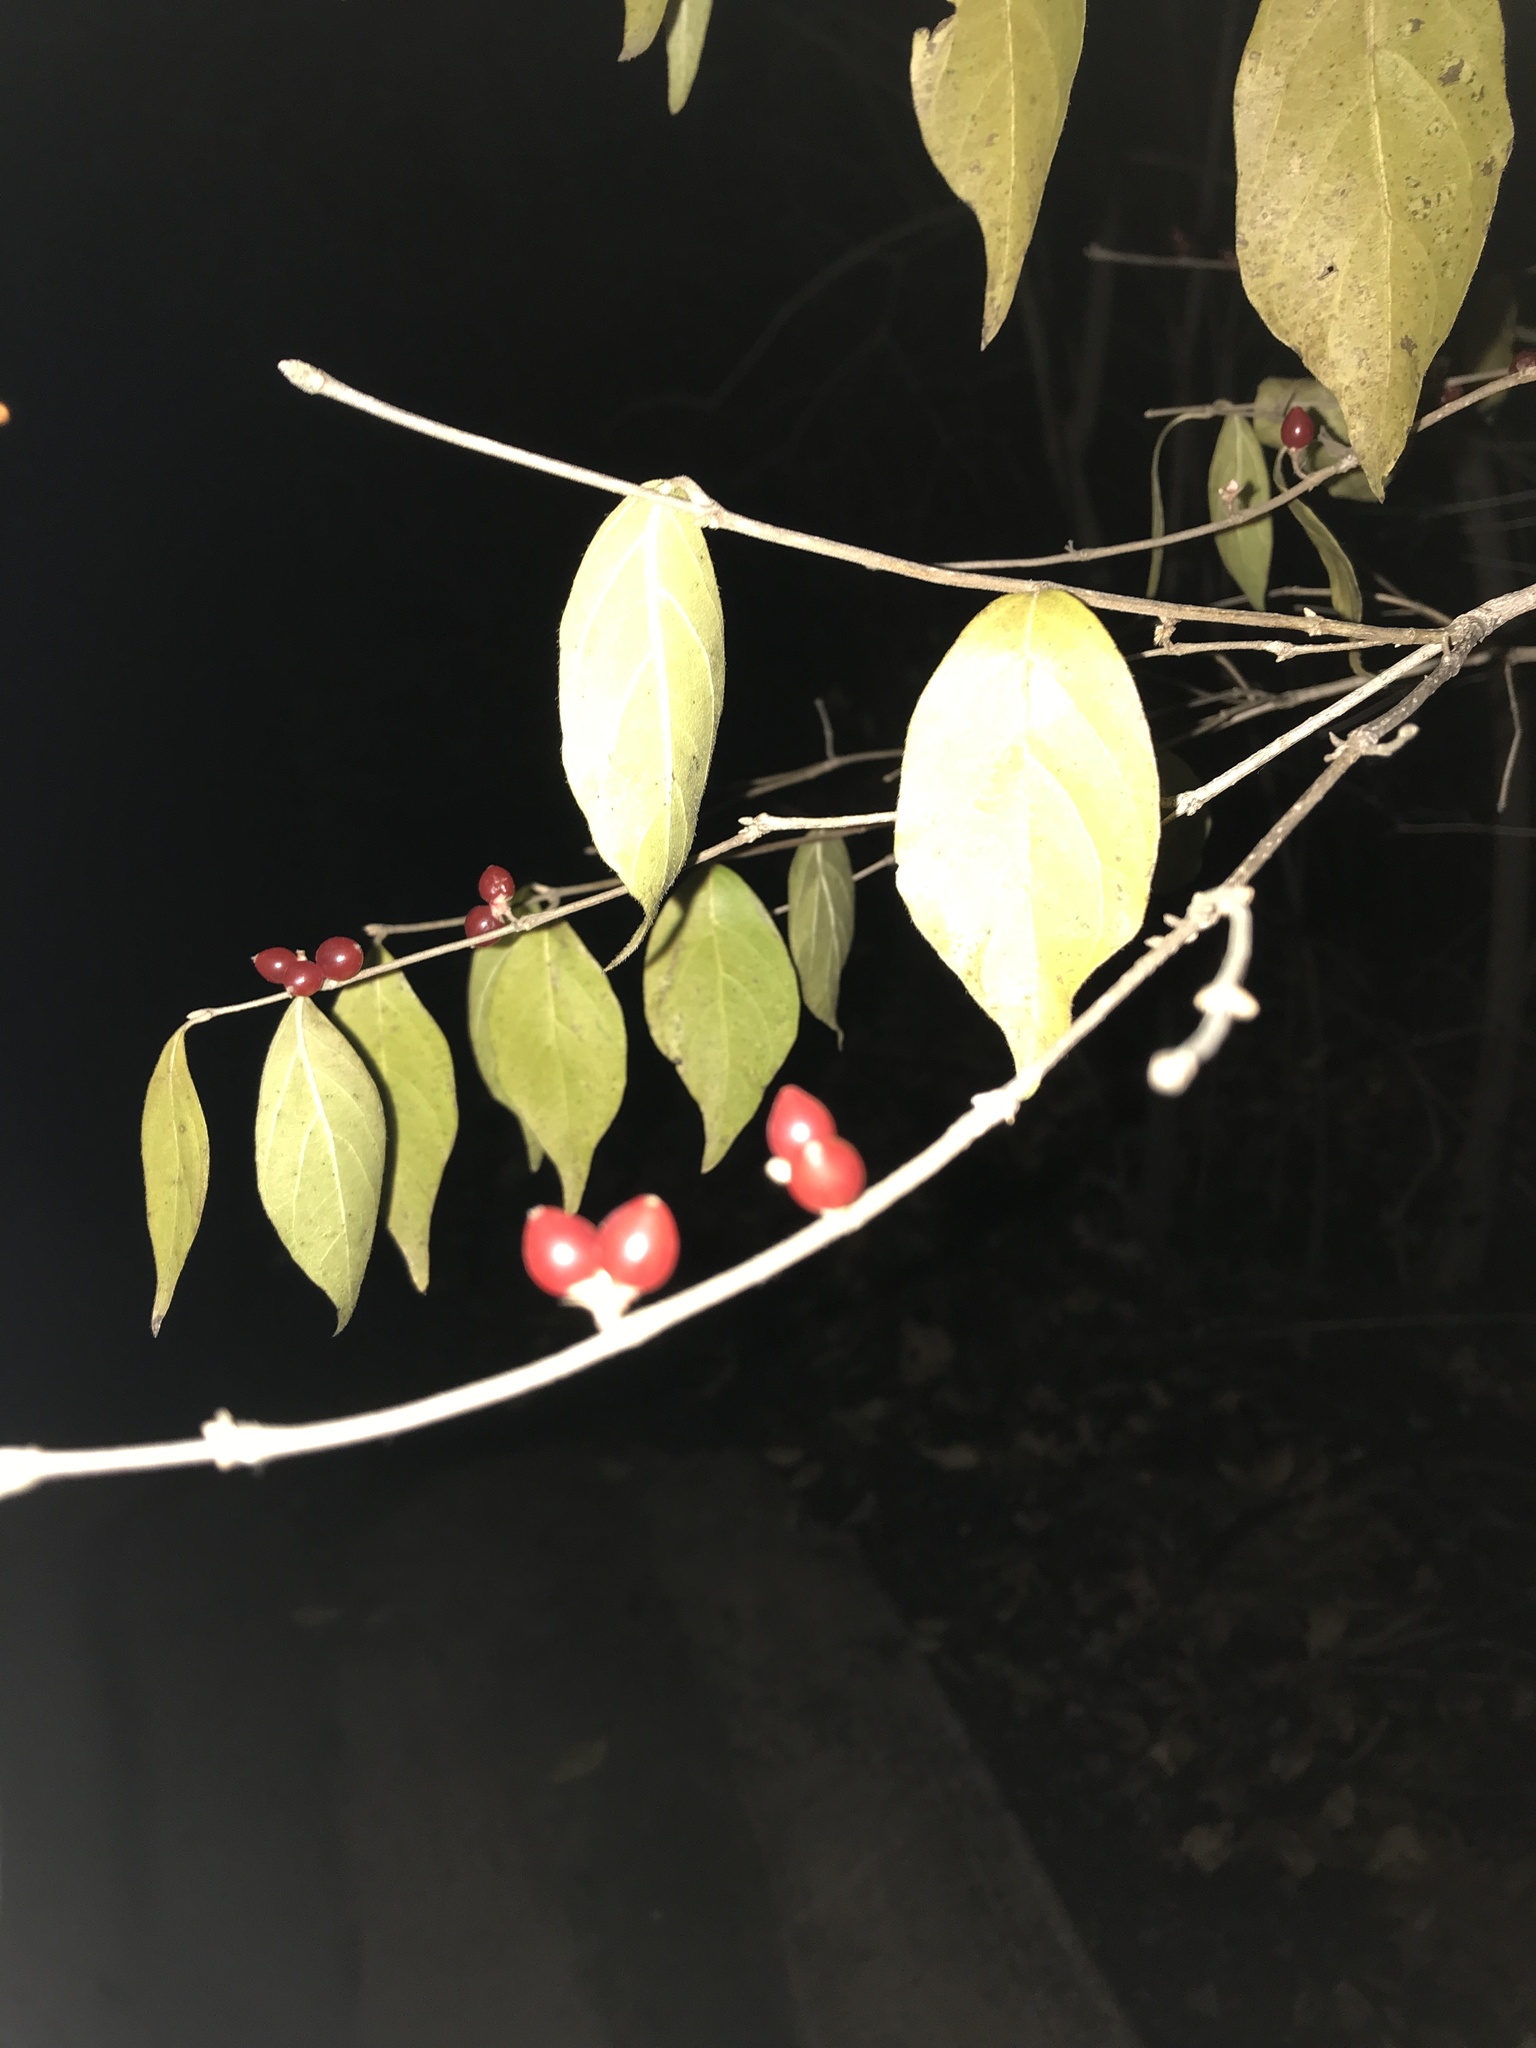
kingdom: Plantae
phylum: Tracheophyta
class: Magnoliopsida
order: Dipsacales
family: Caprifoliaceae
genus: Lonicera
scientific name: Lonicera maackii
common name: Amur honeysuckle
